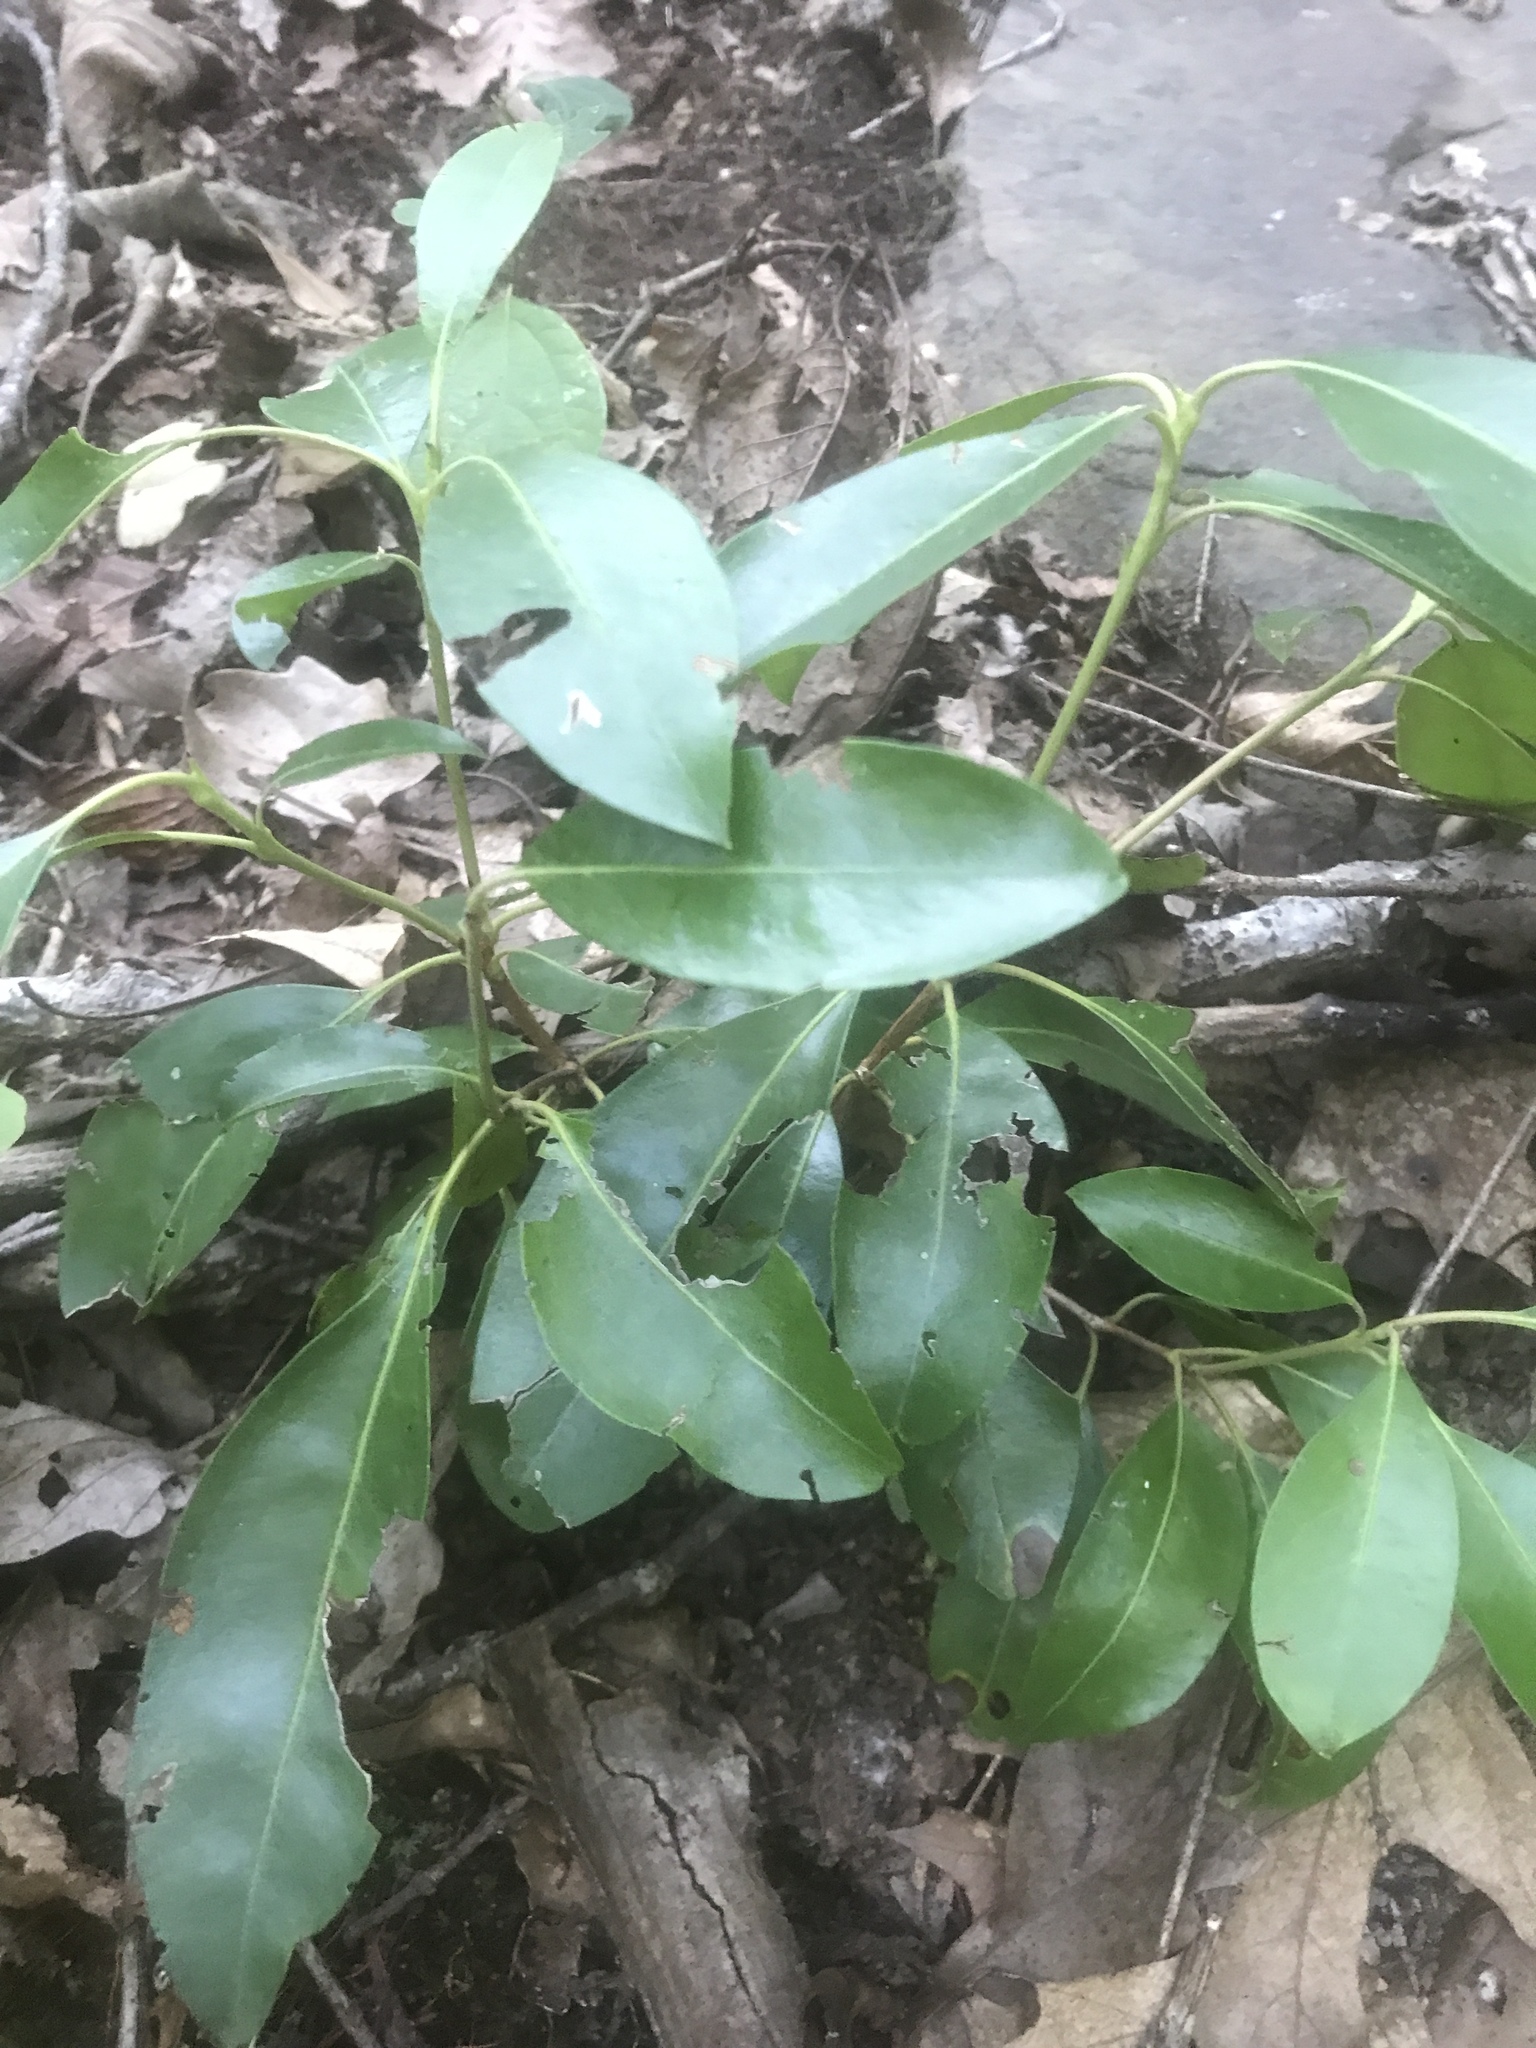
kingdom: Plantae
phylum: Tracheophyta
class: Magnoliopsida
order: Ericales
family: Ericaceae
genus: Kalmia
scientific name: Kalmia latifolia
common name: Mountain-laurel
